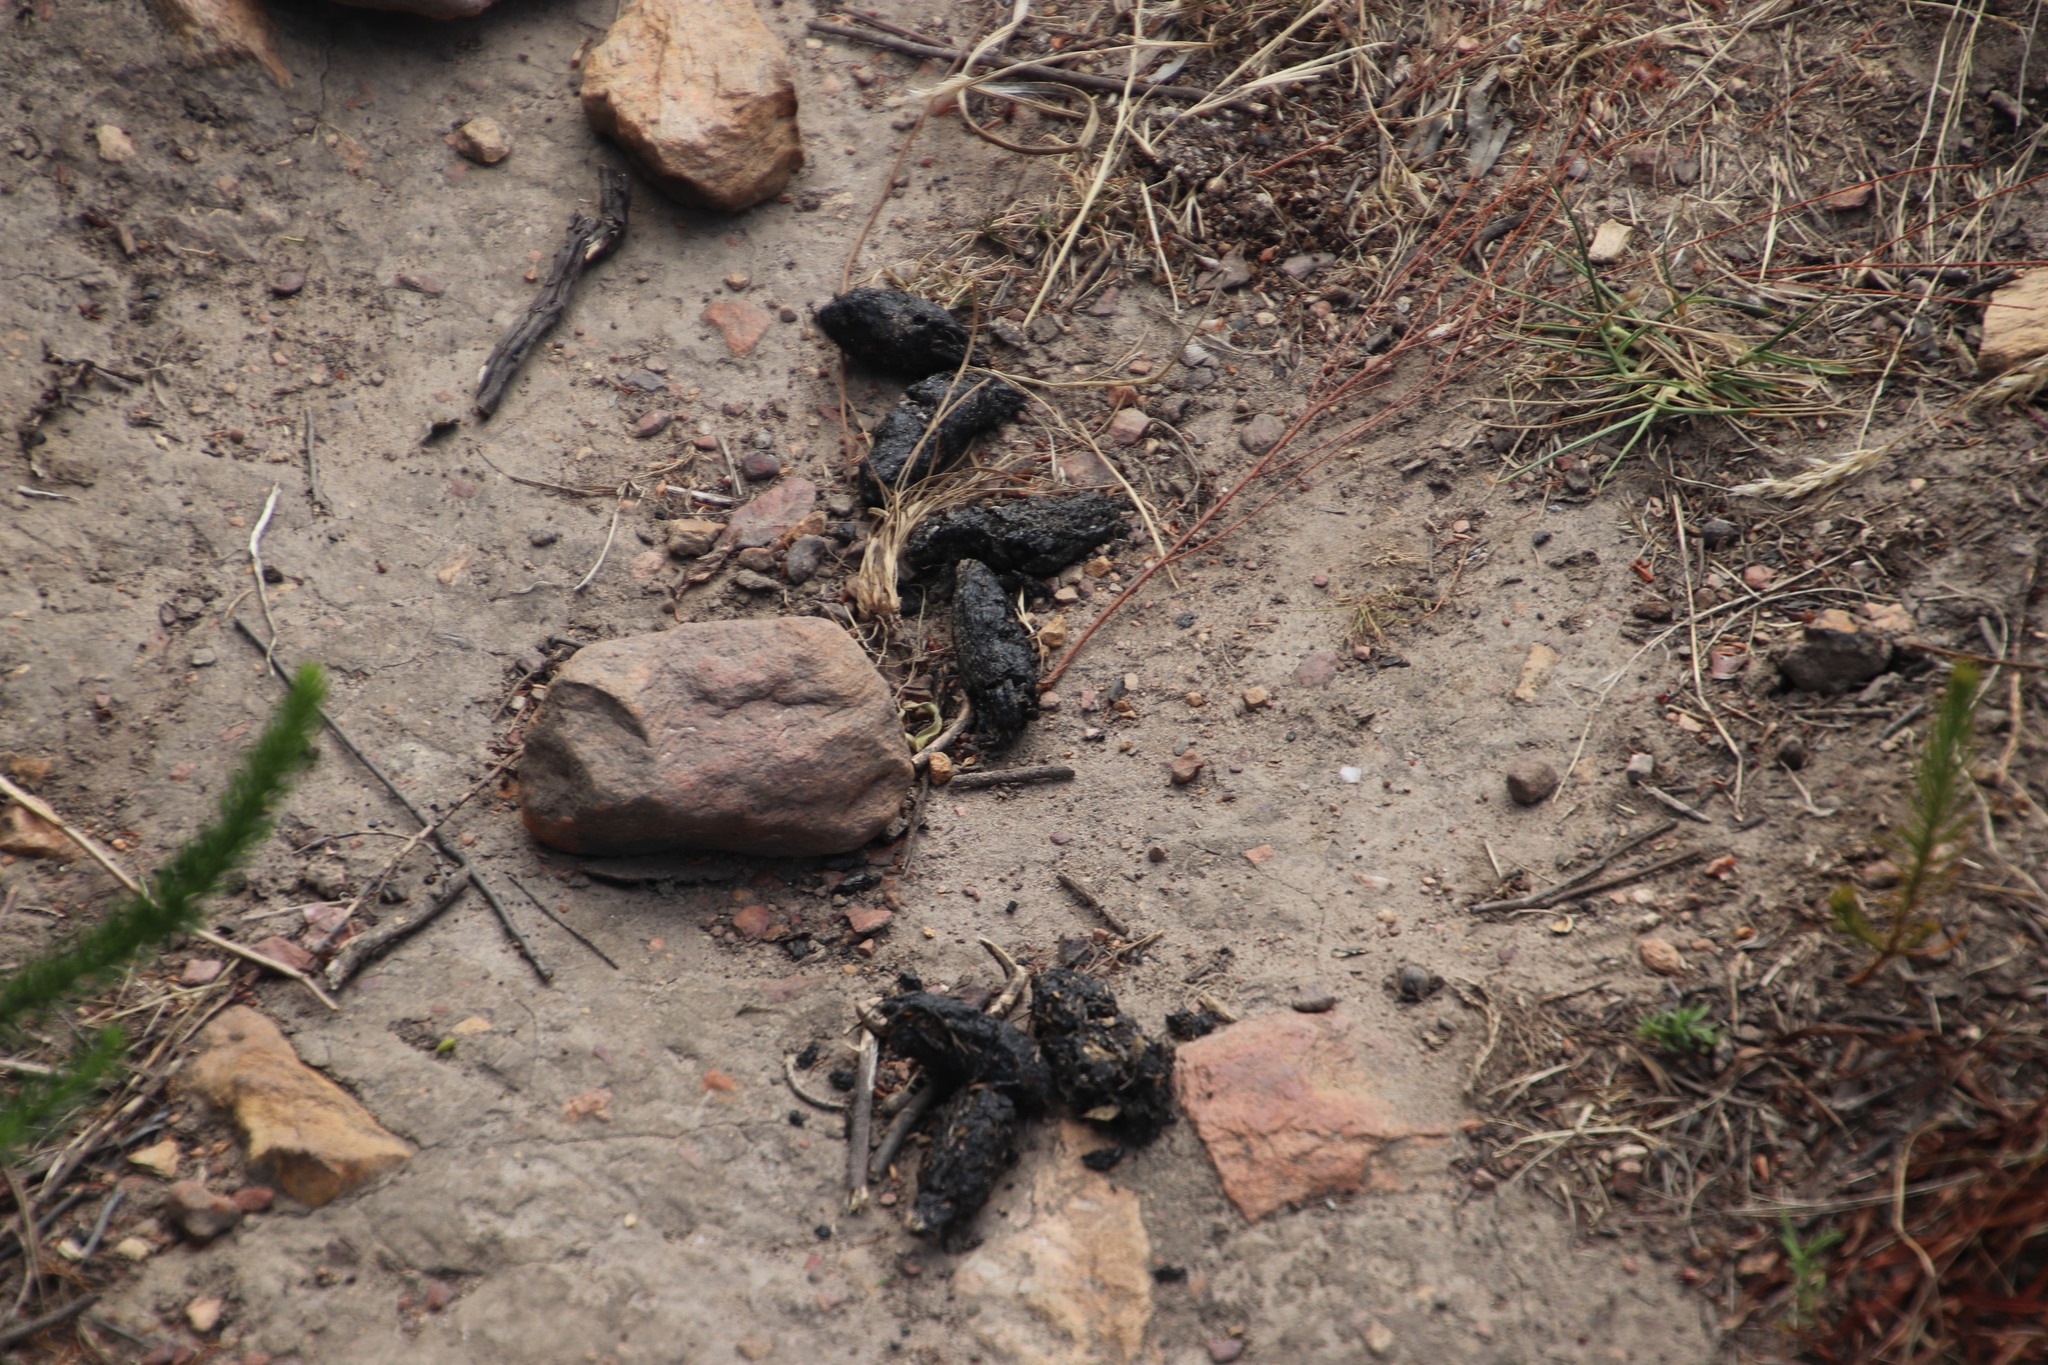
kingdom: Animalia
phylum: Chordata
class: Mammalia
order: Rodentia
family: Hystricidae
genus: Hystrix
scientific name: Hystrix africaeaustralis
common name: Cape porcupine
